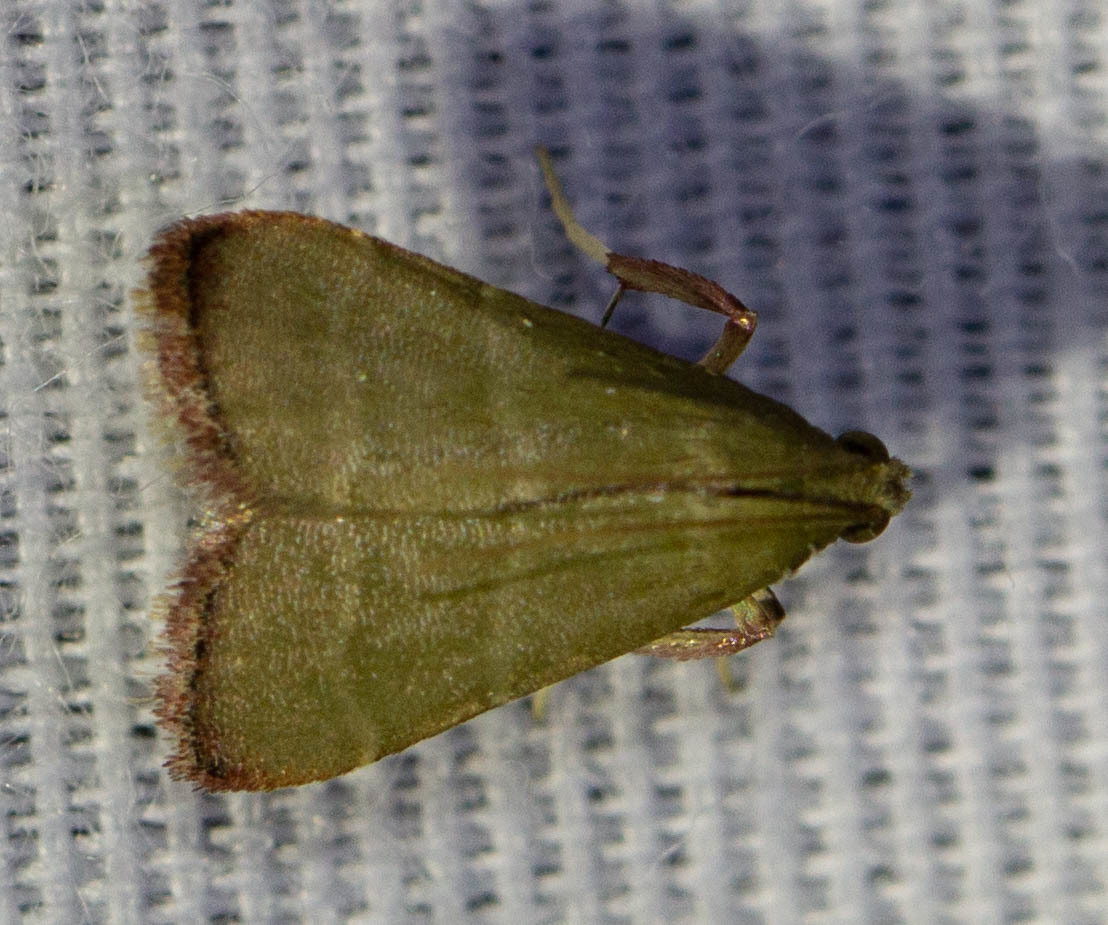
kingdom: Animalia
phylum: Arthropoda
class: Insecta
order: Lepidoptera
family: Pyralidae
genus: Arta
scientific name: Arta olivalis
